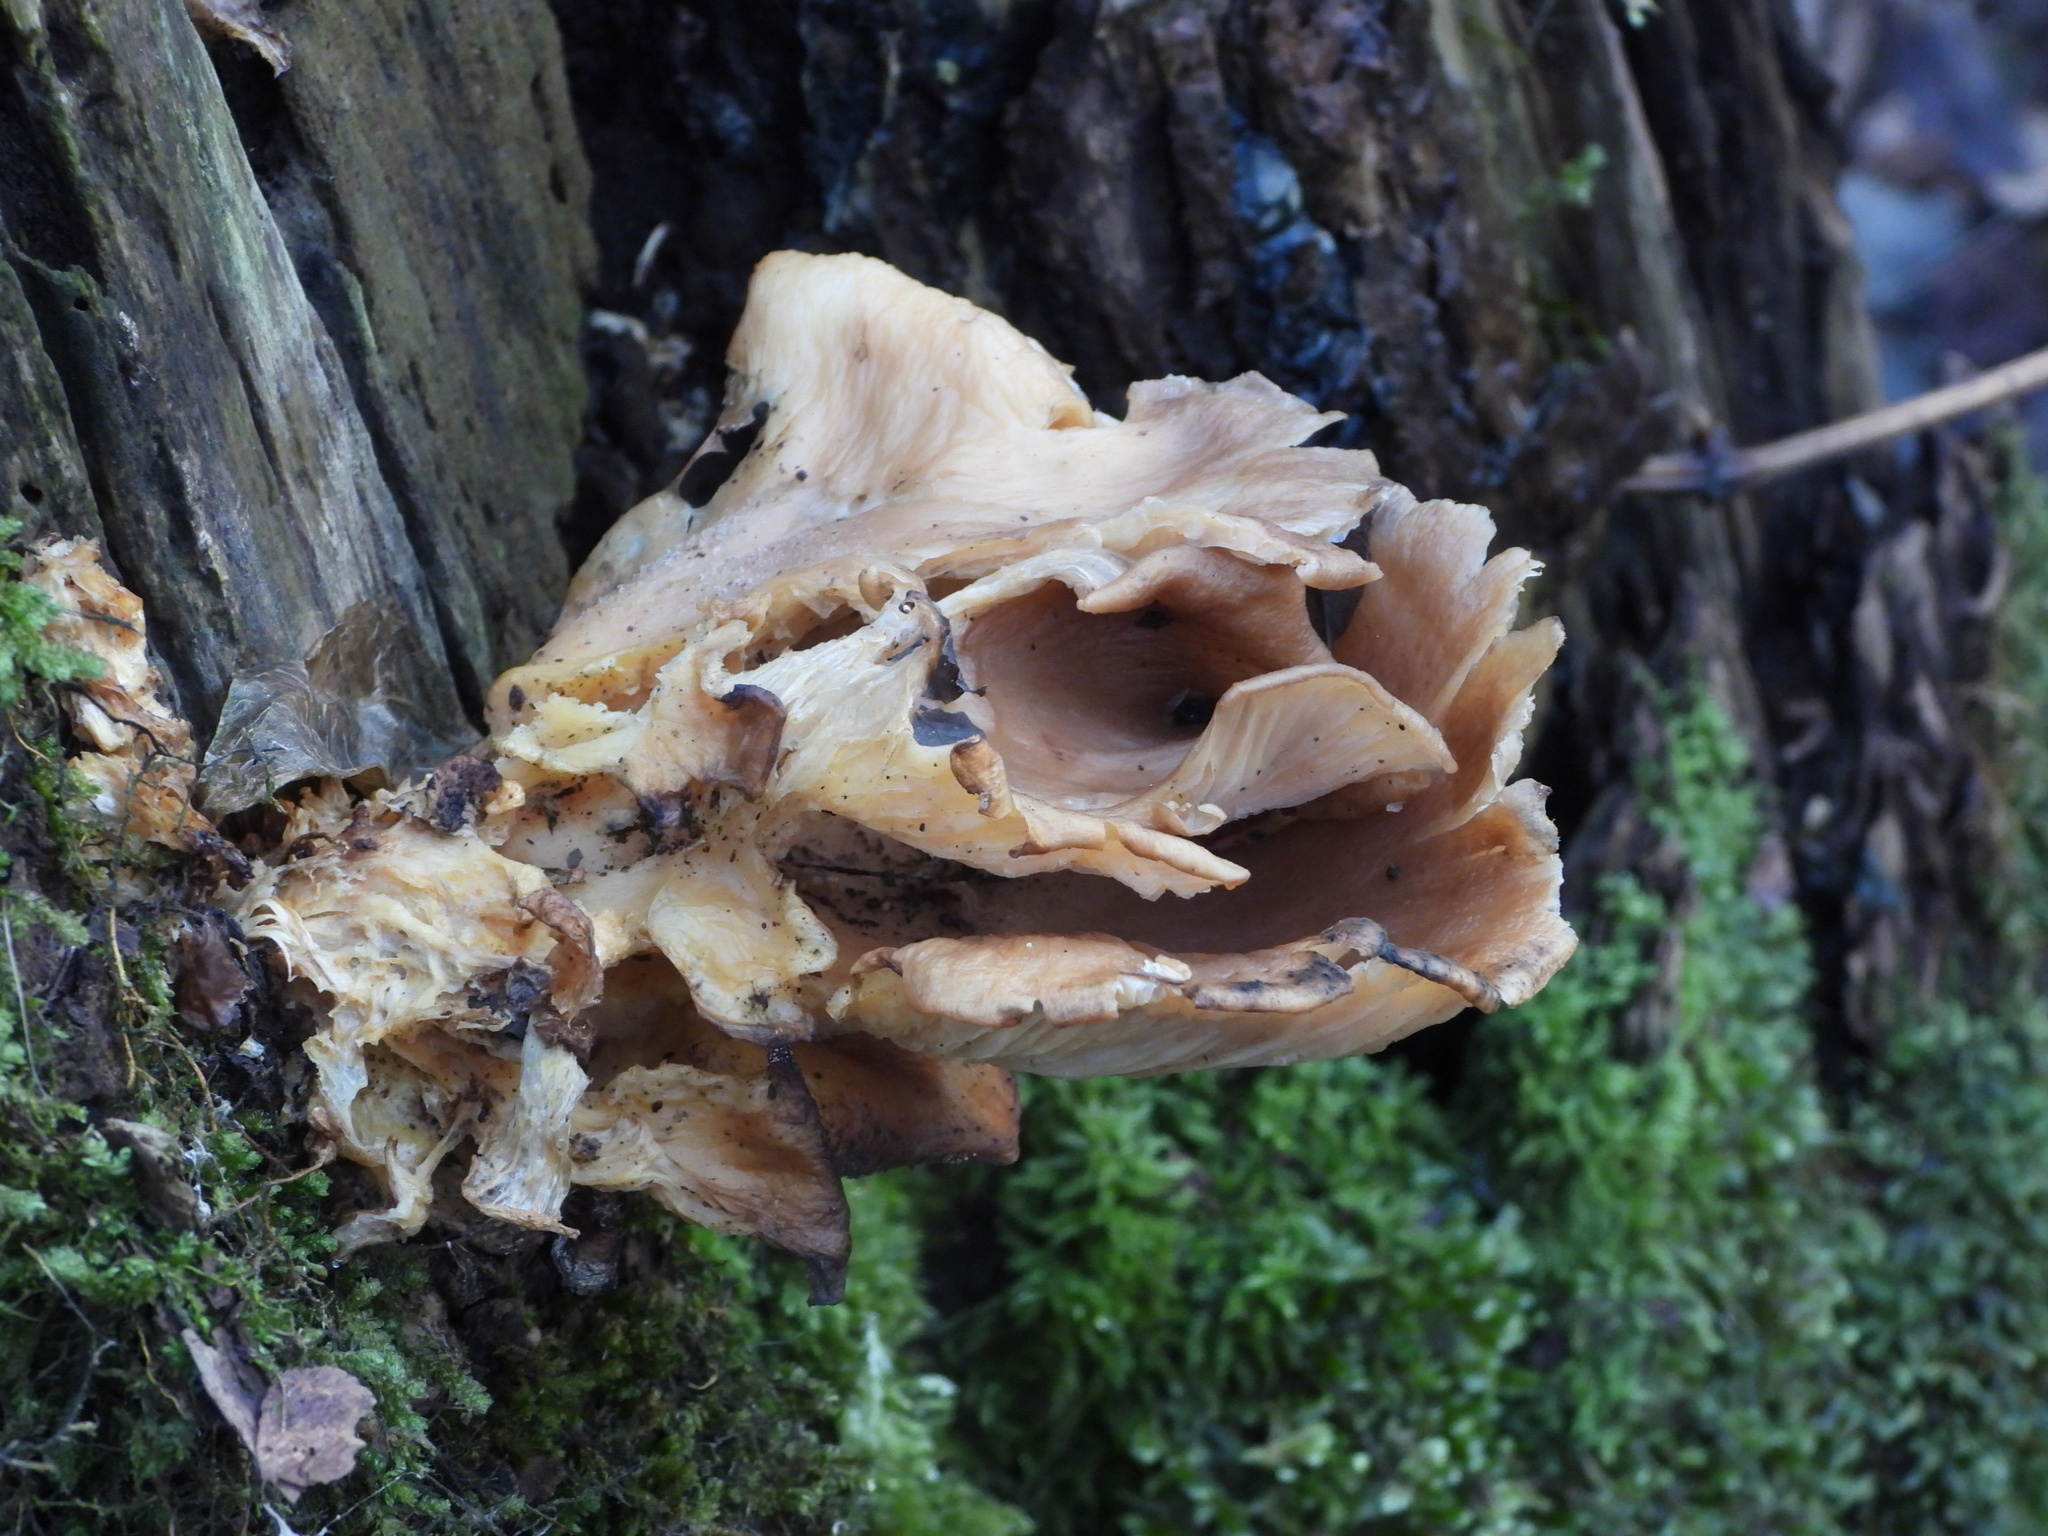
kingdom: Fungi
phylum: Basidiomycota
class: Agaricomycetes
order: Agaricales
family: Pleurotaceae
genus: Pleurotus
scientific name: Pleurotus ostreatus
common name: Oyster mushroom
